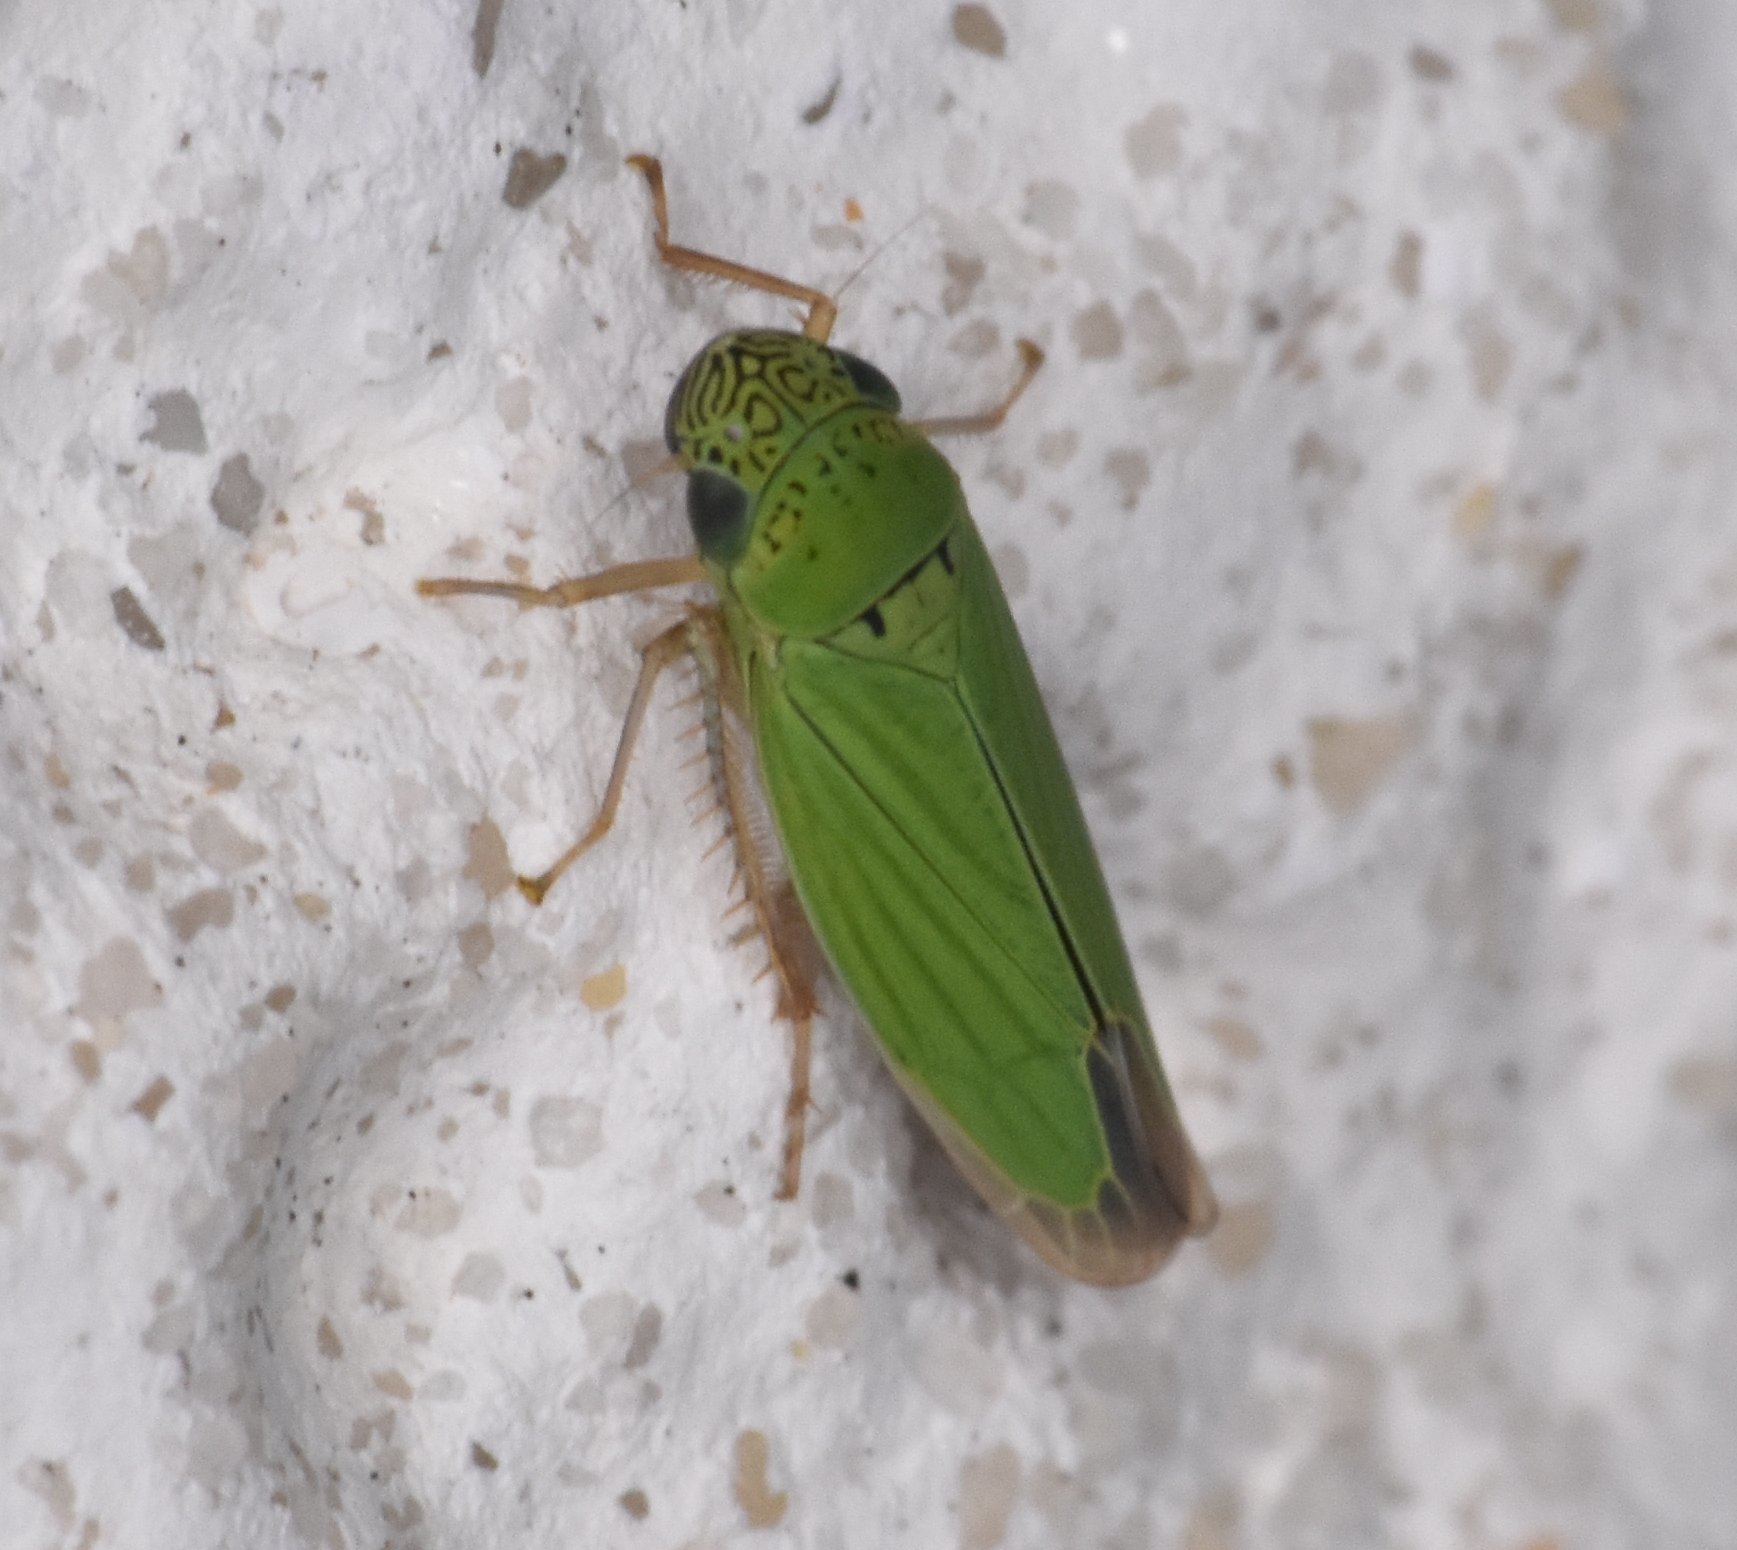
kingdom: Animalia
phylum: Arthropoda
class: Insecta
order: Hemiptera
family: Cicadellidae
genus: Hortensia
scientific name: Hortensia similis
